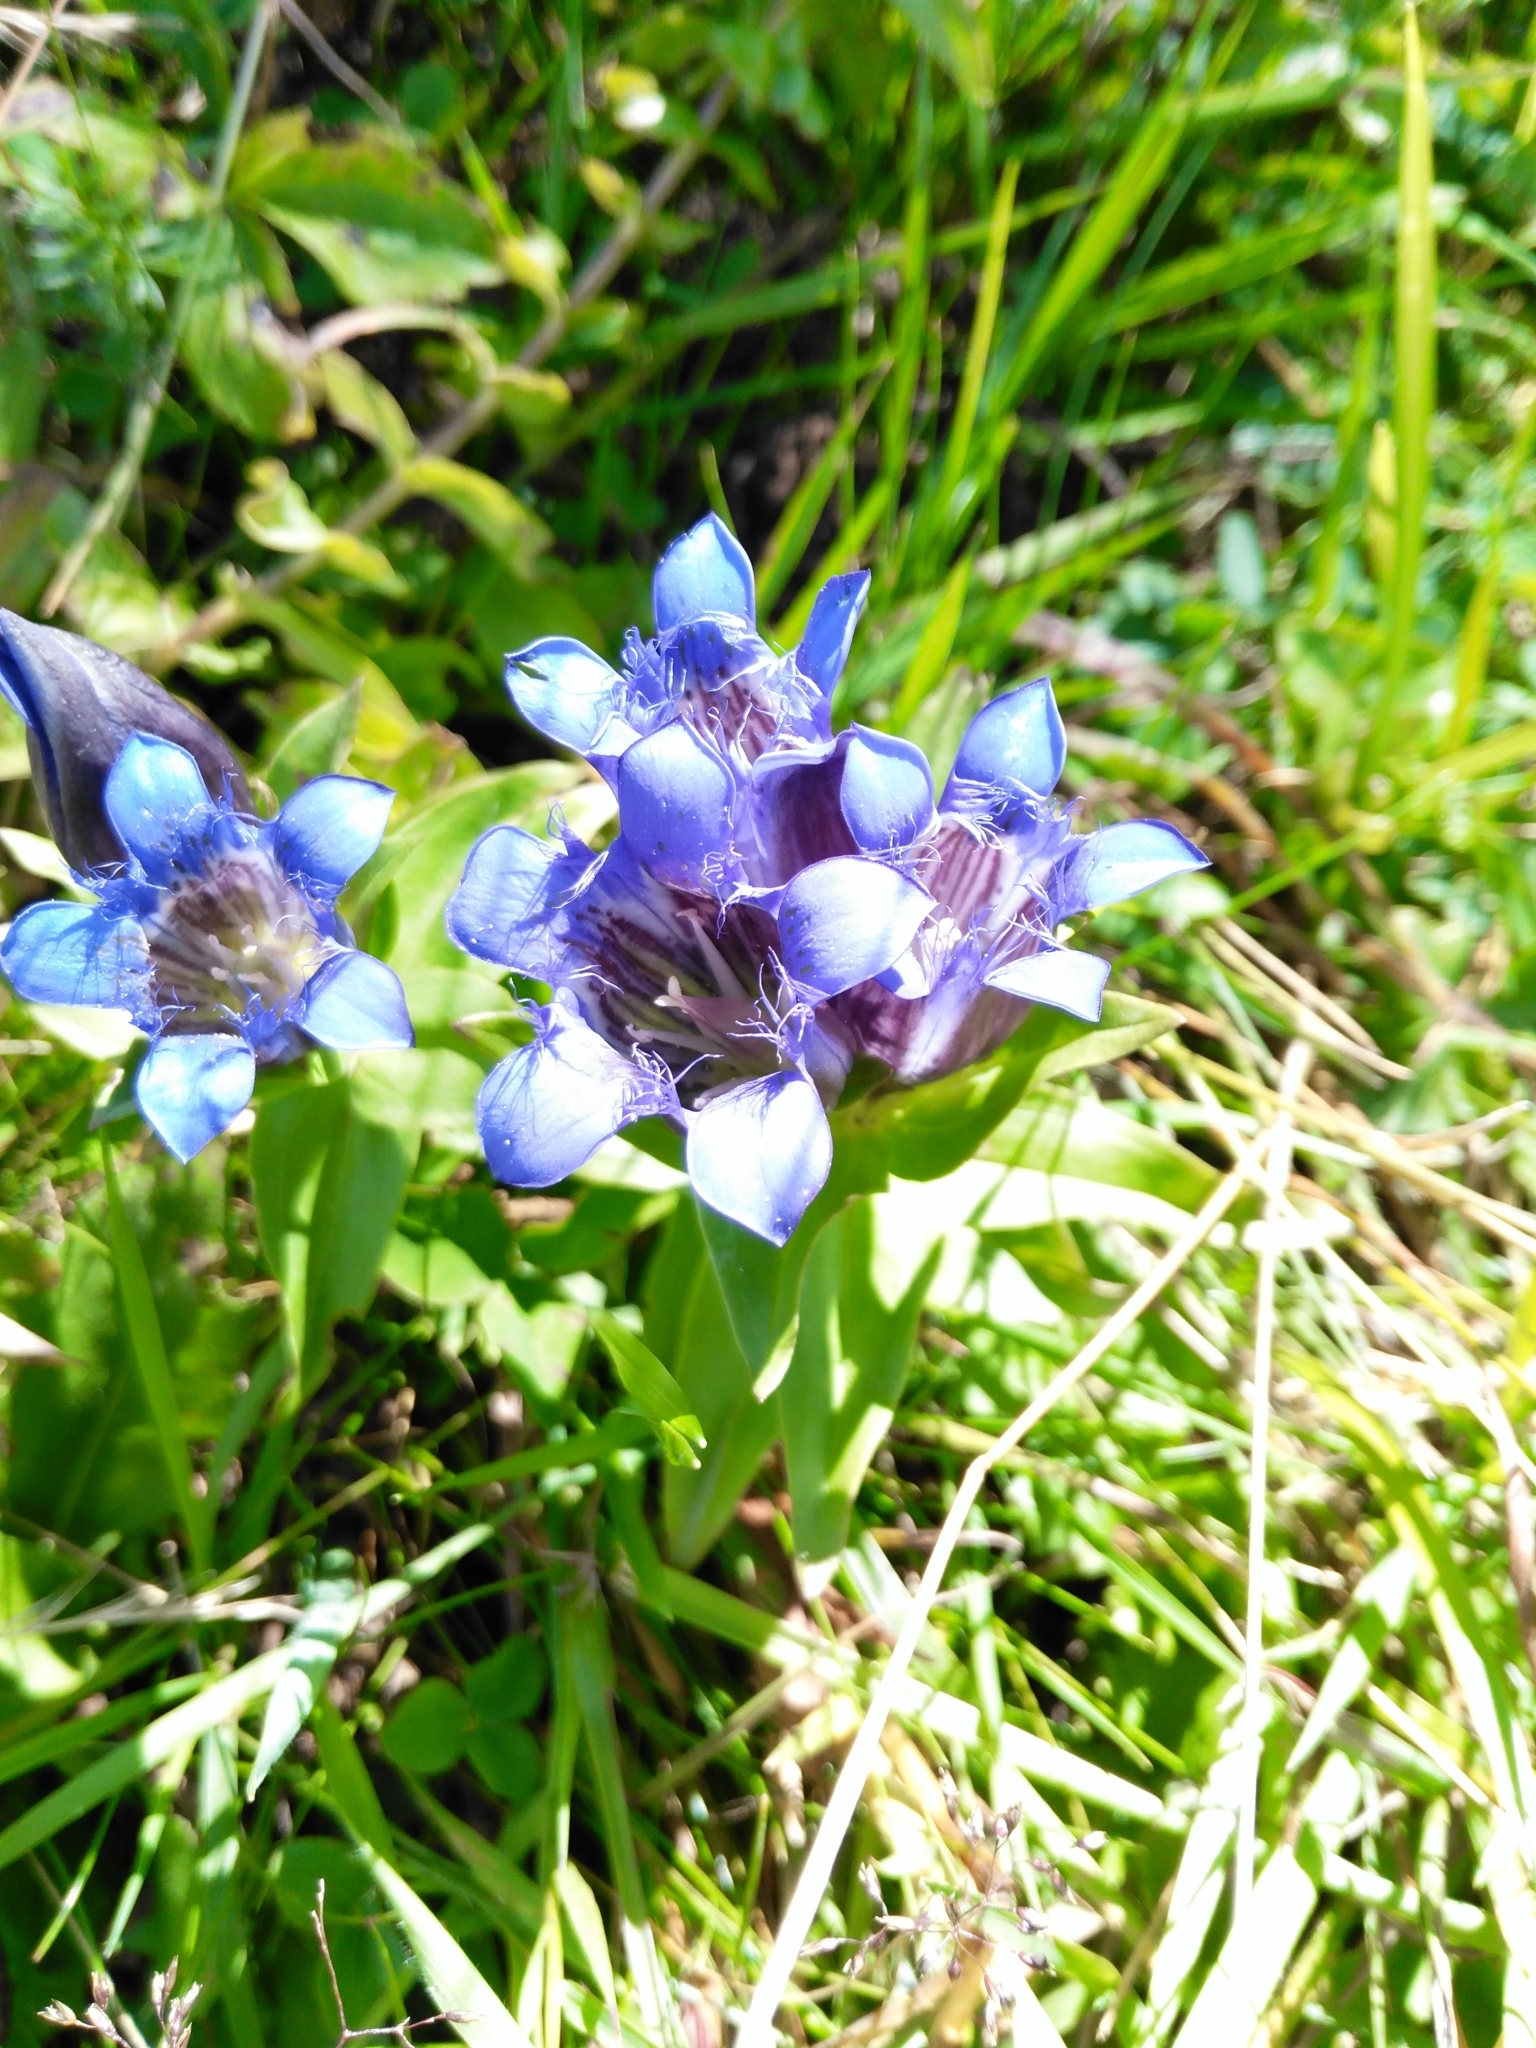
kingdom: Plantae
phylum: Tracheophyta
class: Magnoliopsida
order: Gentianales
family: Gentianaceae
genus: Gentiana
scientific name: Gentiana septemfida
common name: Crested gentian
